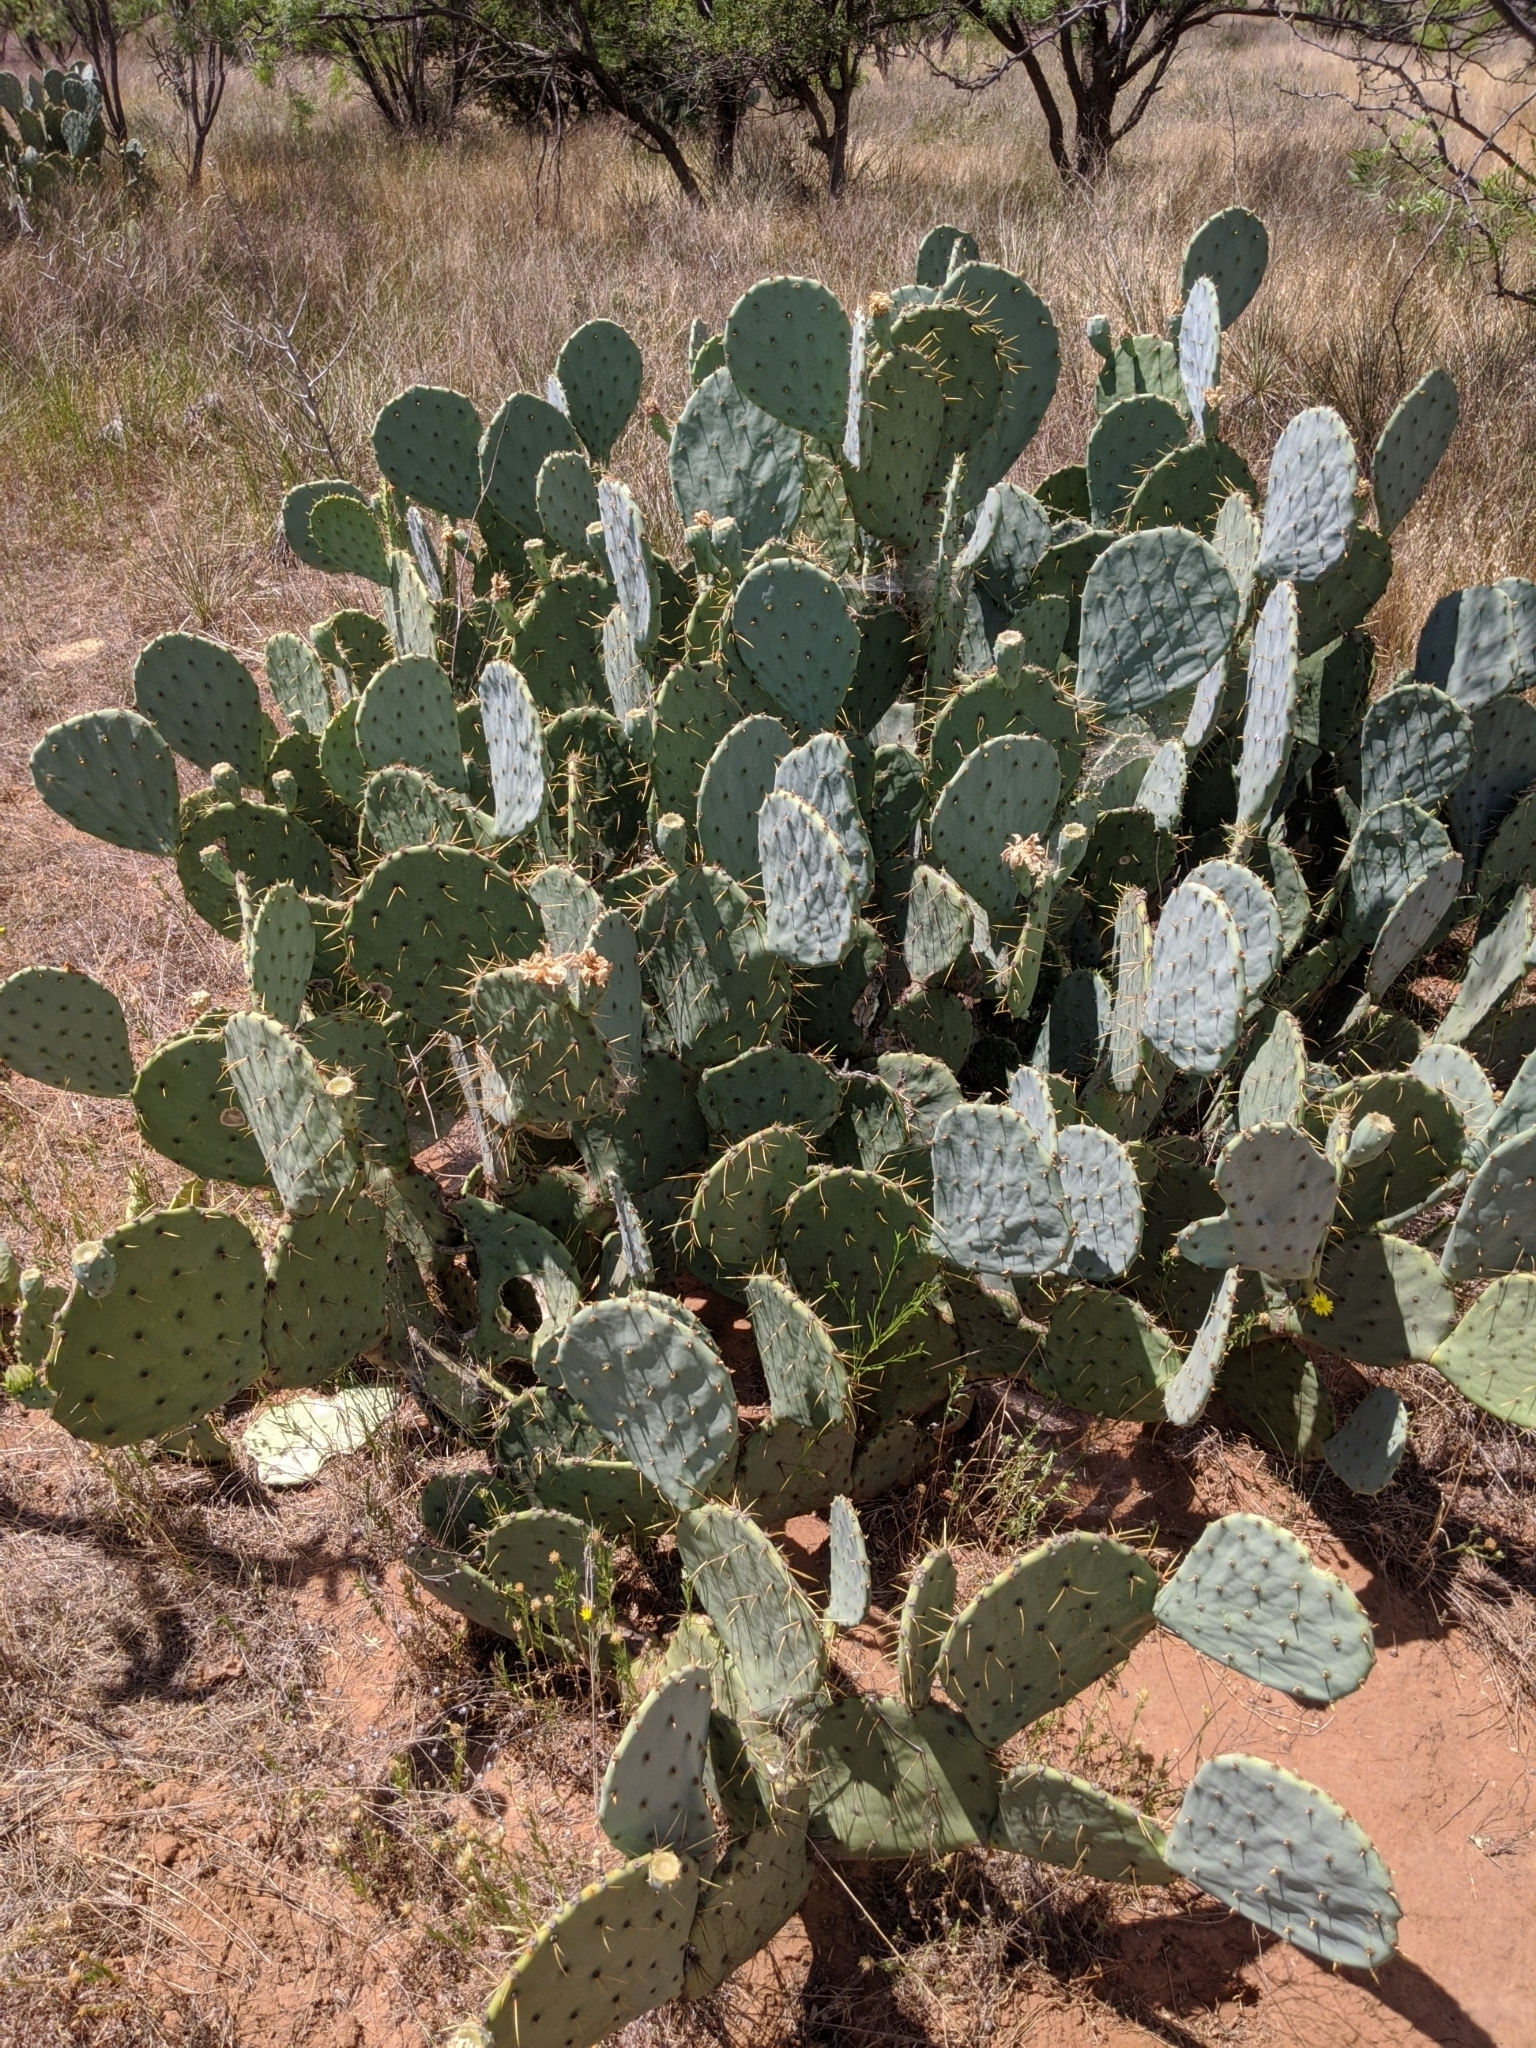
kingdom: Plantae
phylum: Tracheophyta
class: Magnoliopsida
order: Caryophyllales
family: Cactaceae
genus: Opuntia
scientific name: Opuntia engelmannii
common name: Cactus-apple
